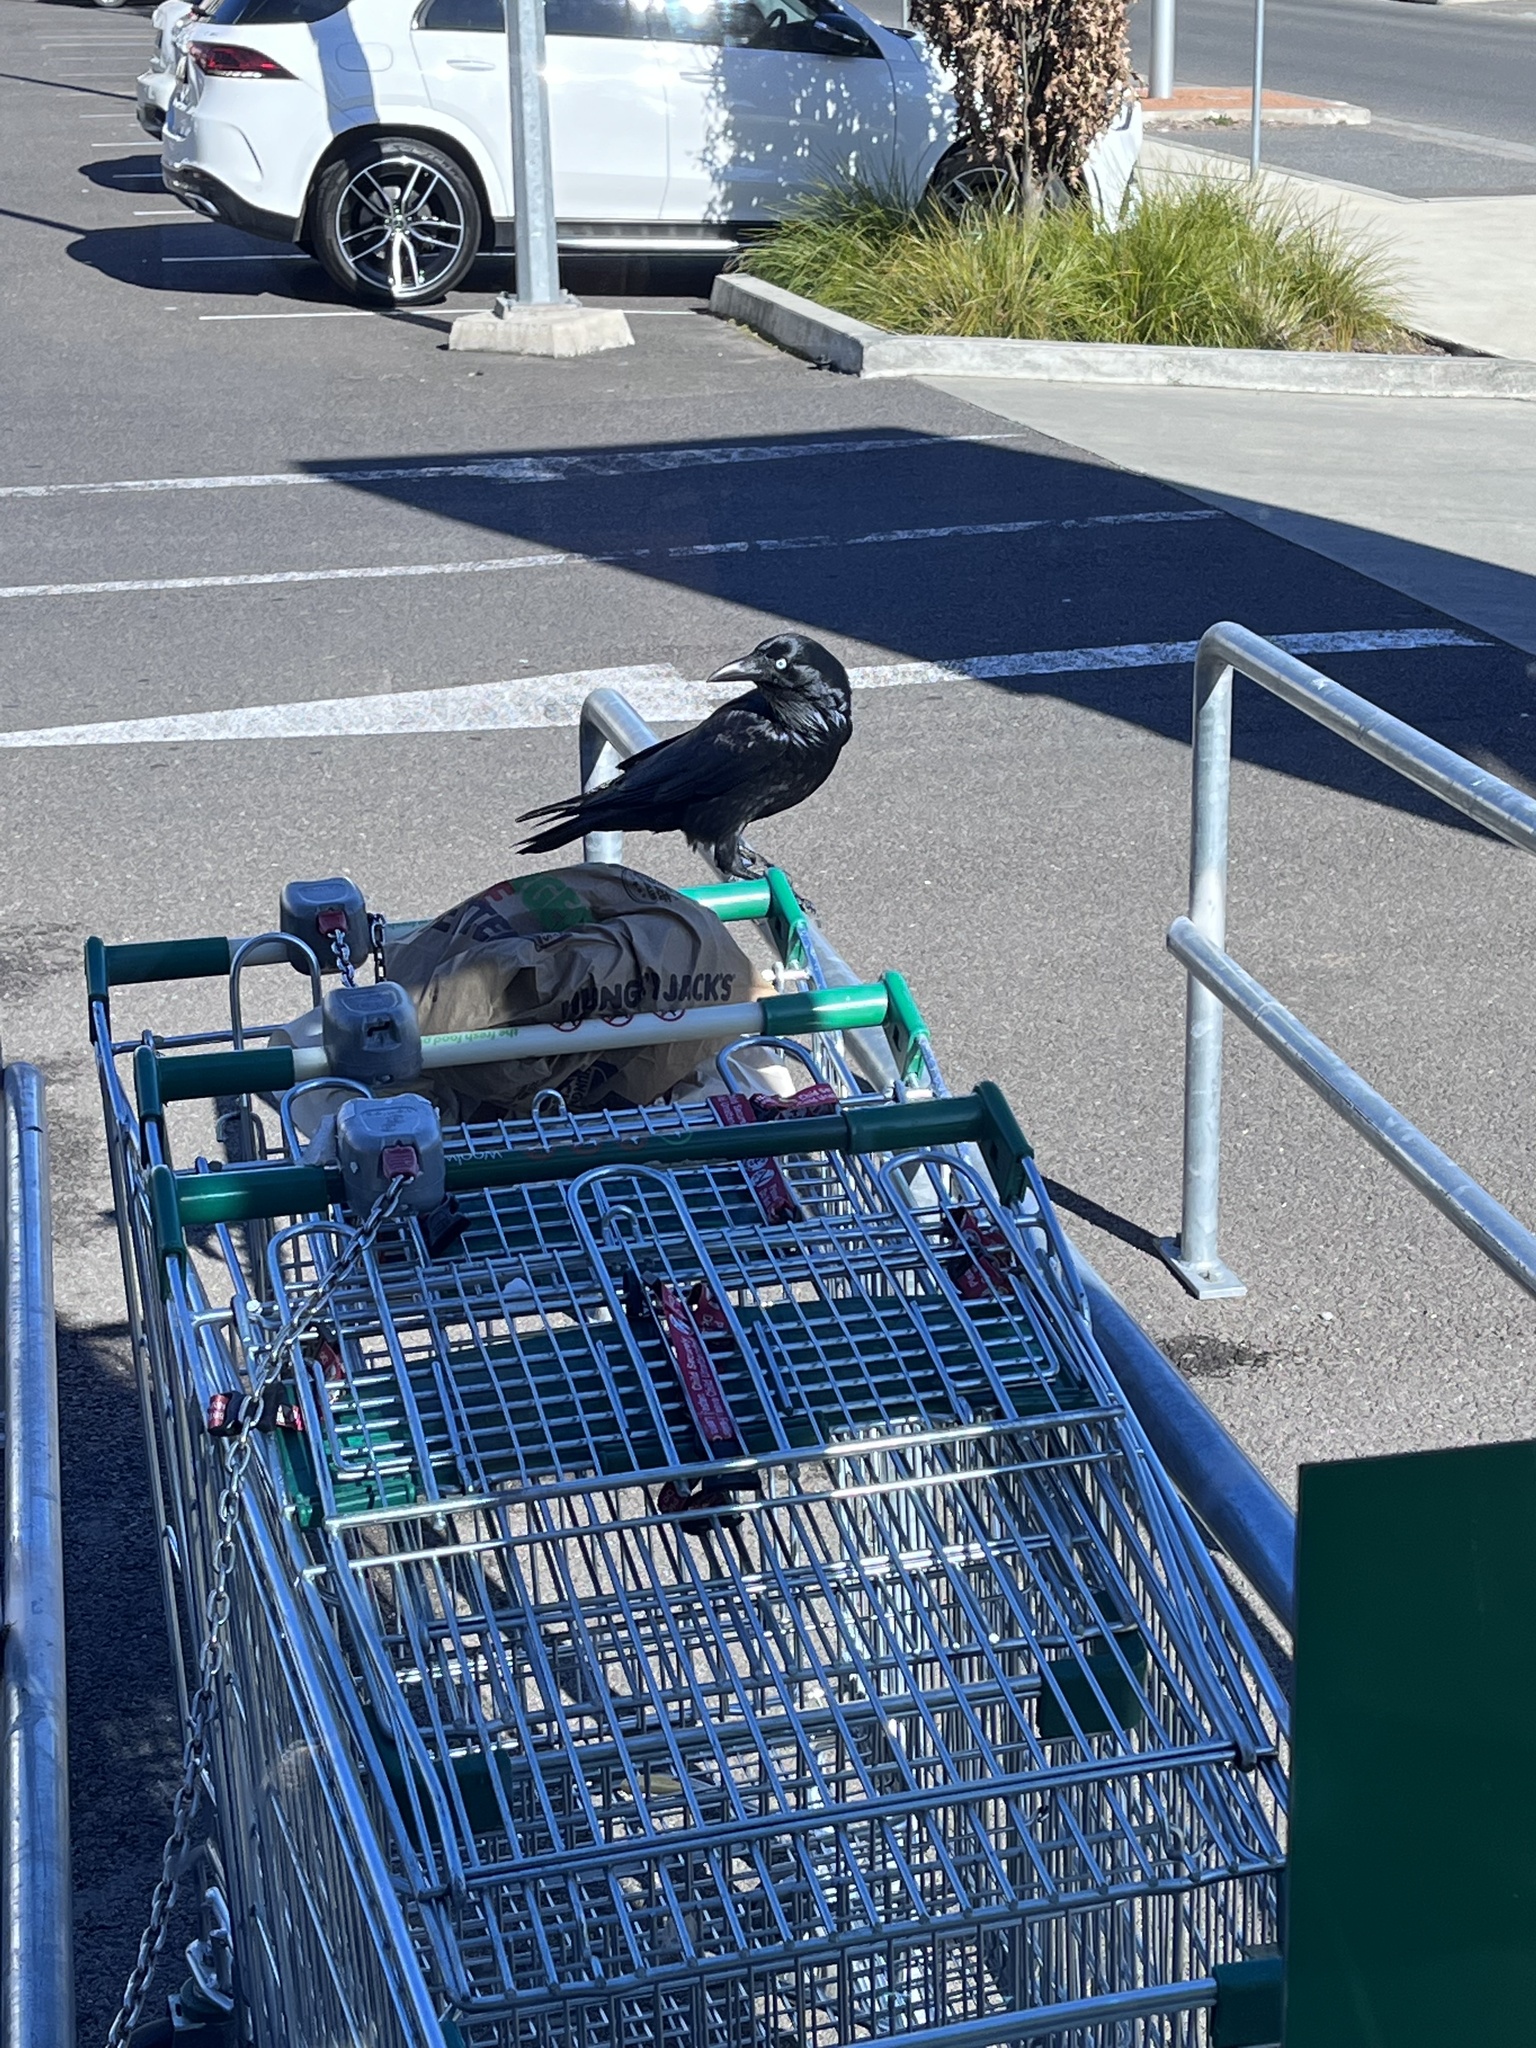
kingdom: Animalia
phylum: Chordata
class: Aves
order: Passeriformes
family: Corvidae
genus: Corvus
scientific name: Corvus coronoides
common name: Australian raven
